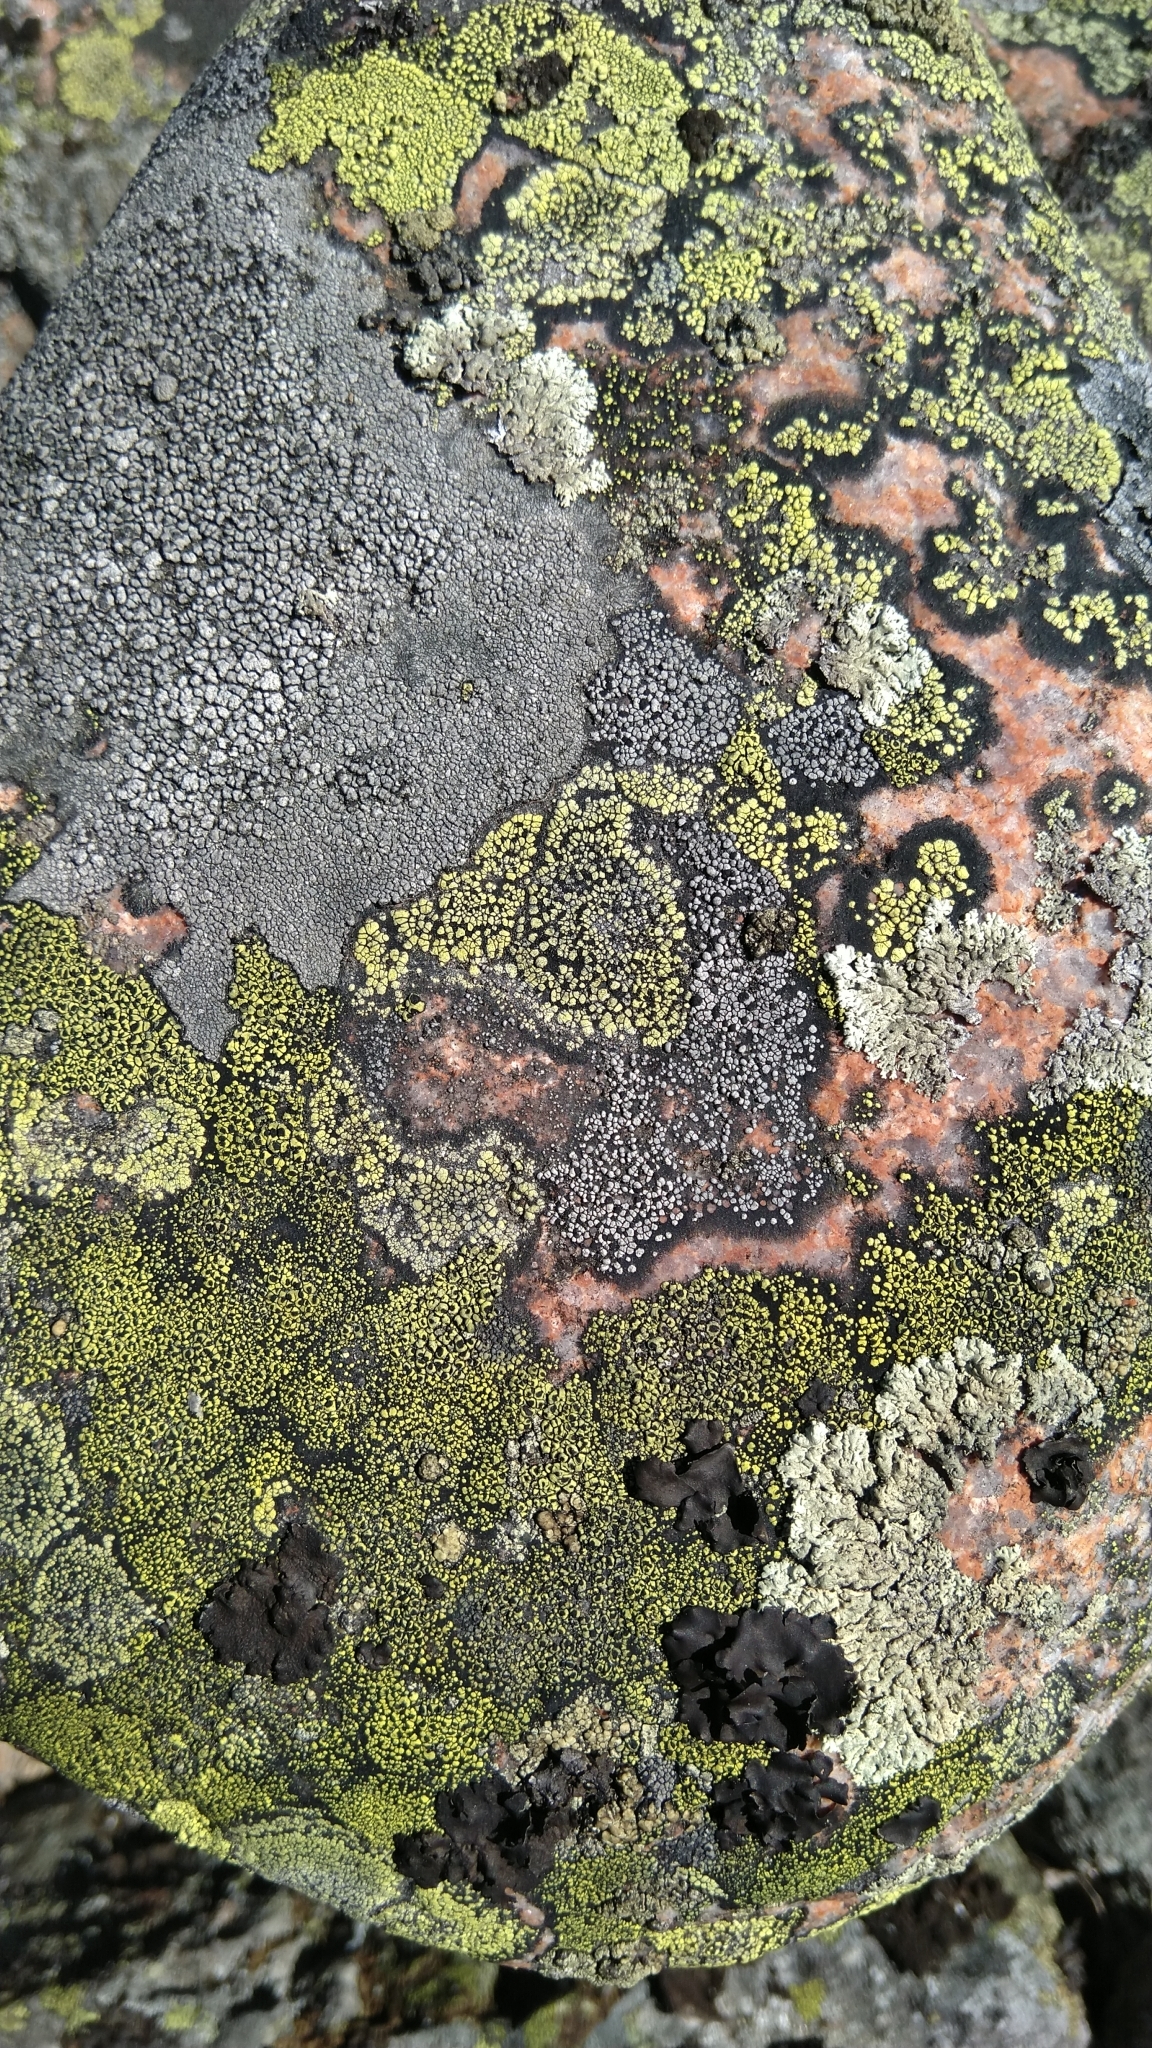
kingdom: Fungi
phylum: Ascomycota
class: Lecanoromycetes
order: Rhizocarpales
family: Rhizocarpaceae
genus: Rhizocarpon
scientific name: Rhizocarpon lecanorinum
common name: Crescent map lichen
